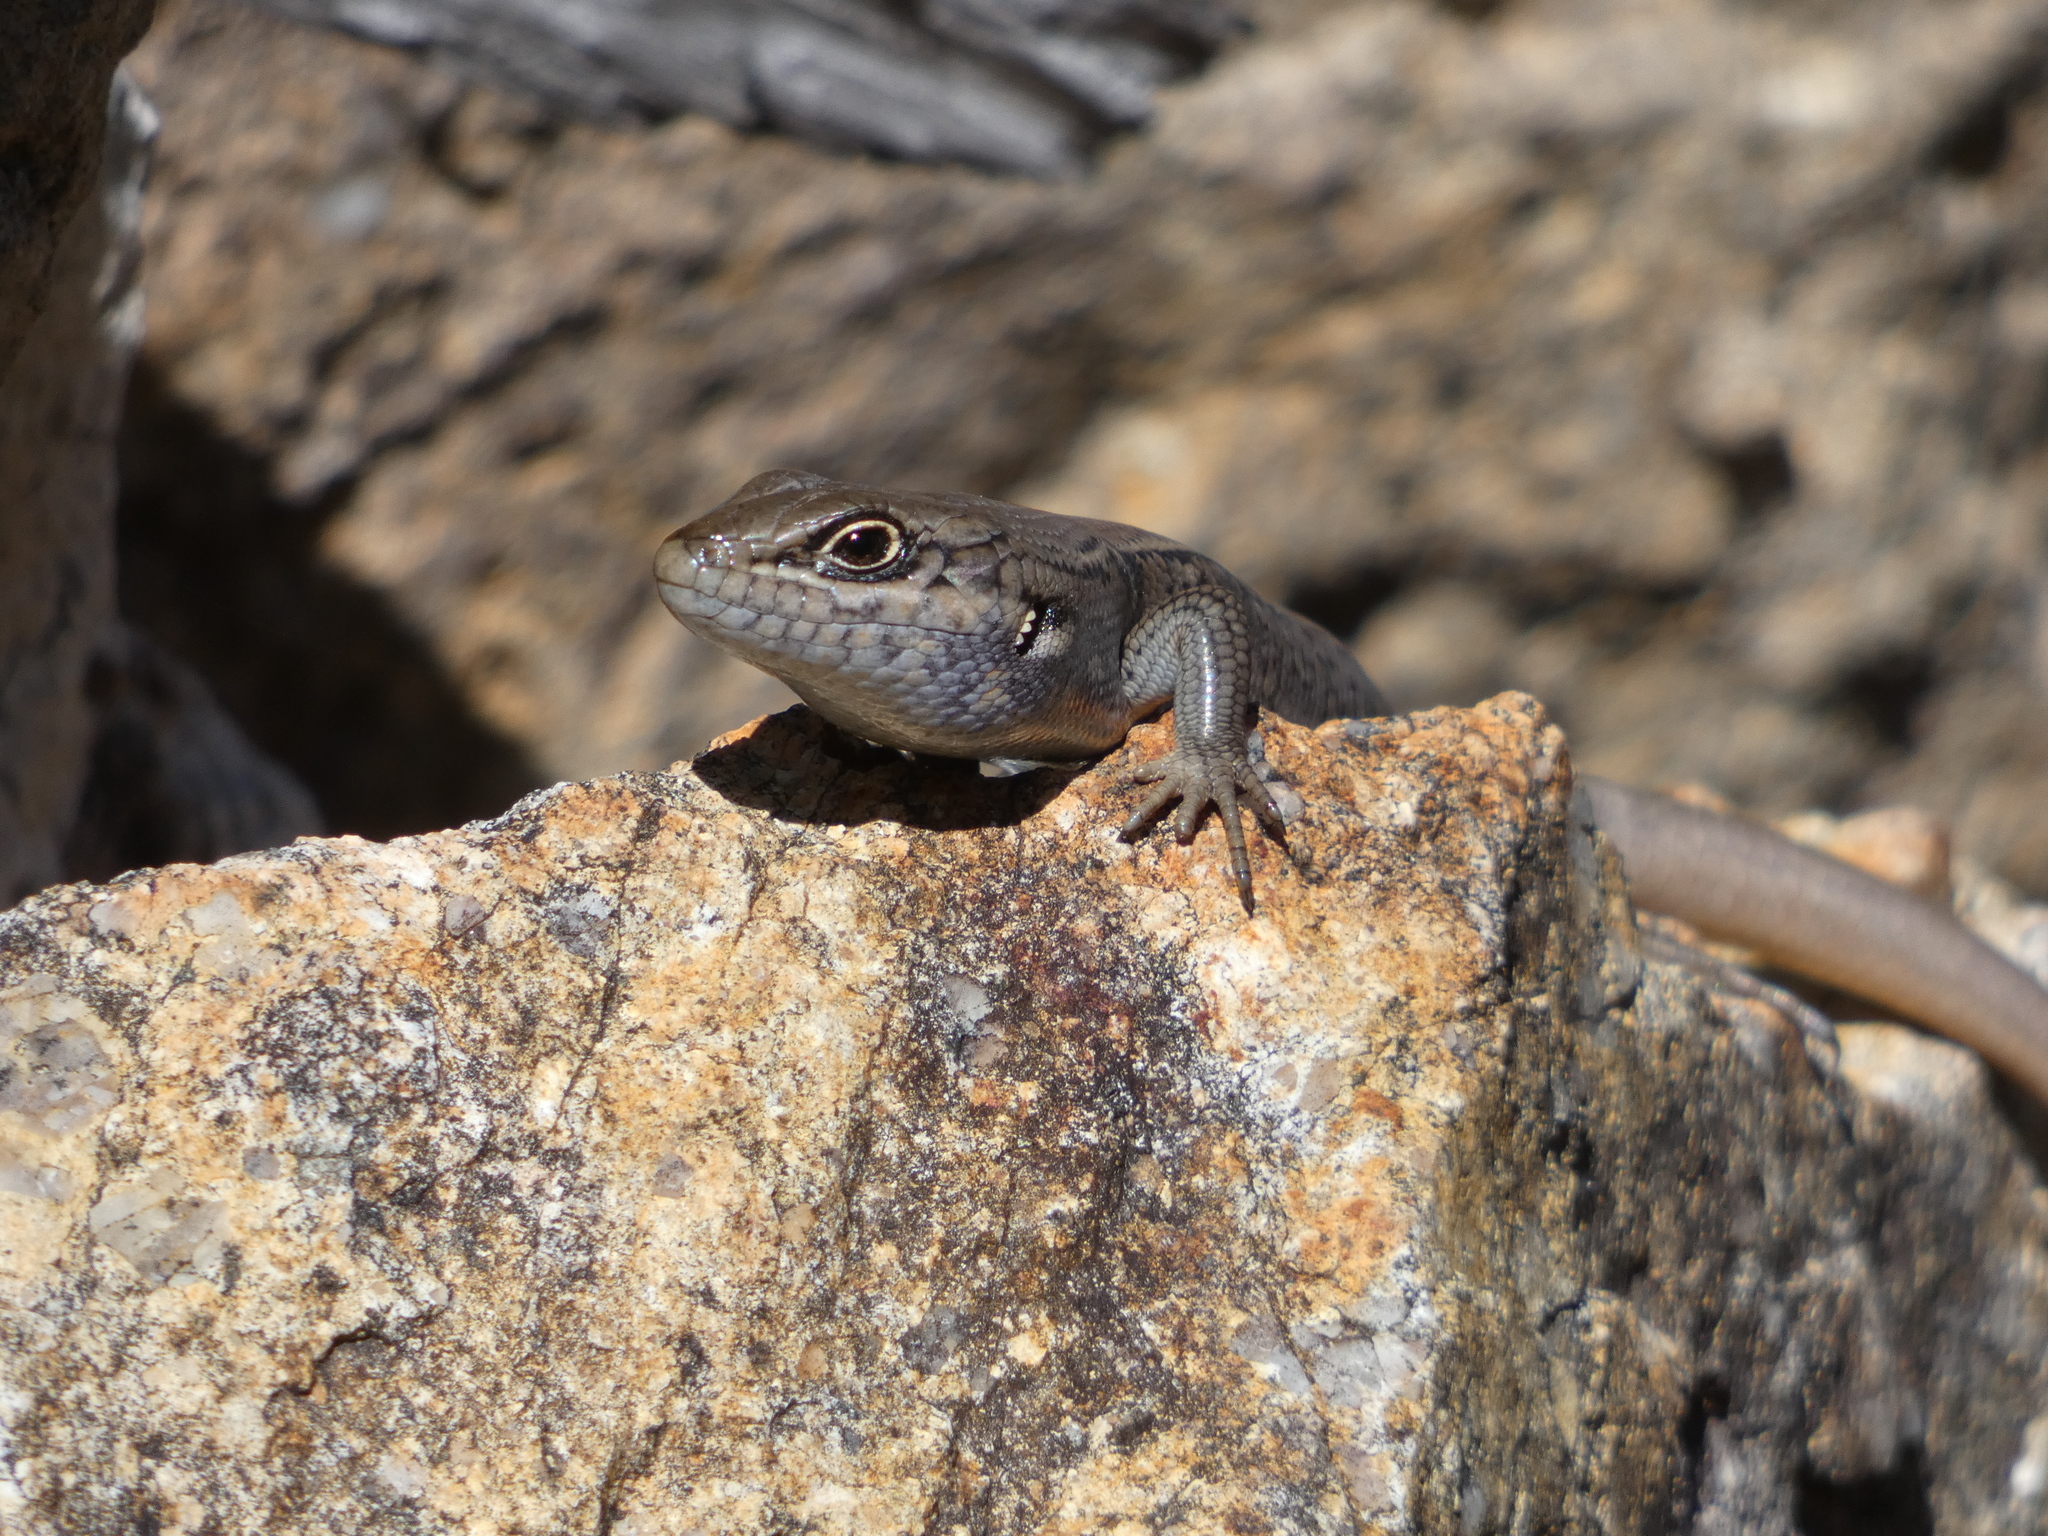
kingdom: Animalia
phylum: Chordata
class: Squamata
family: Scincidae
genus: Liopholis
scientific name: Liopholis whitii
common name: White's rock-skink
